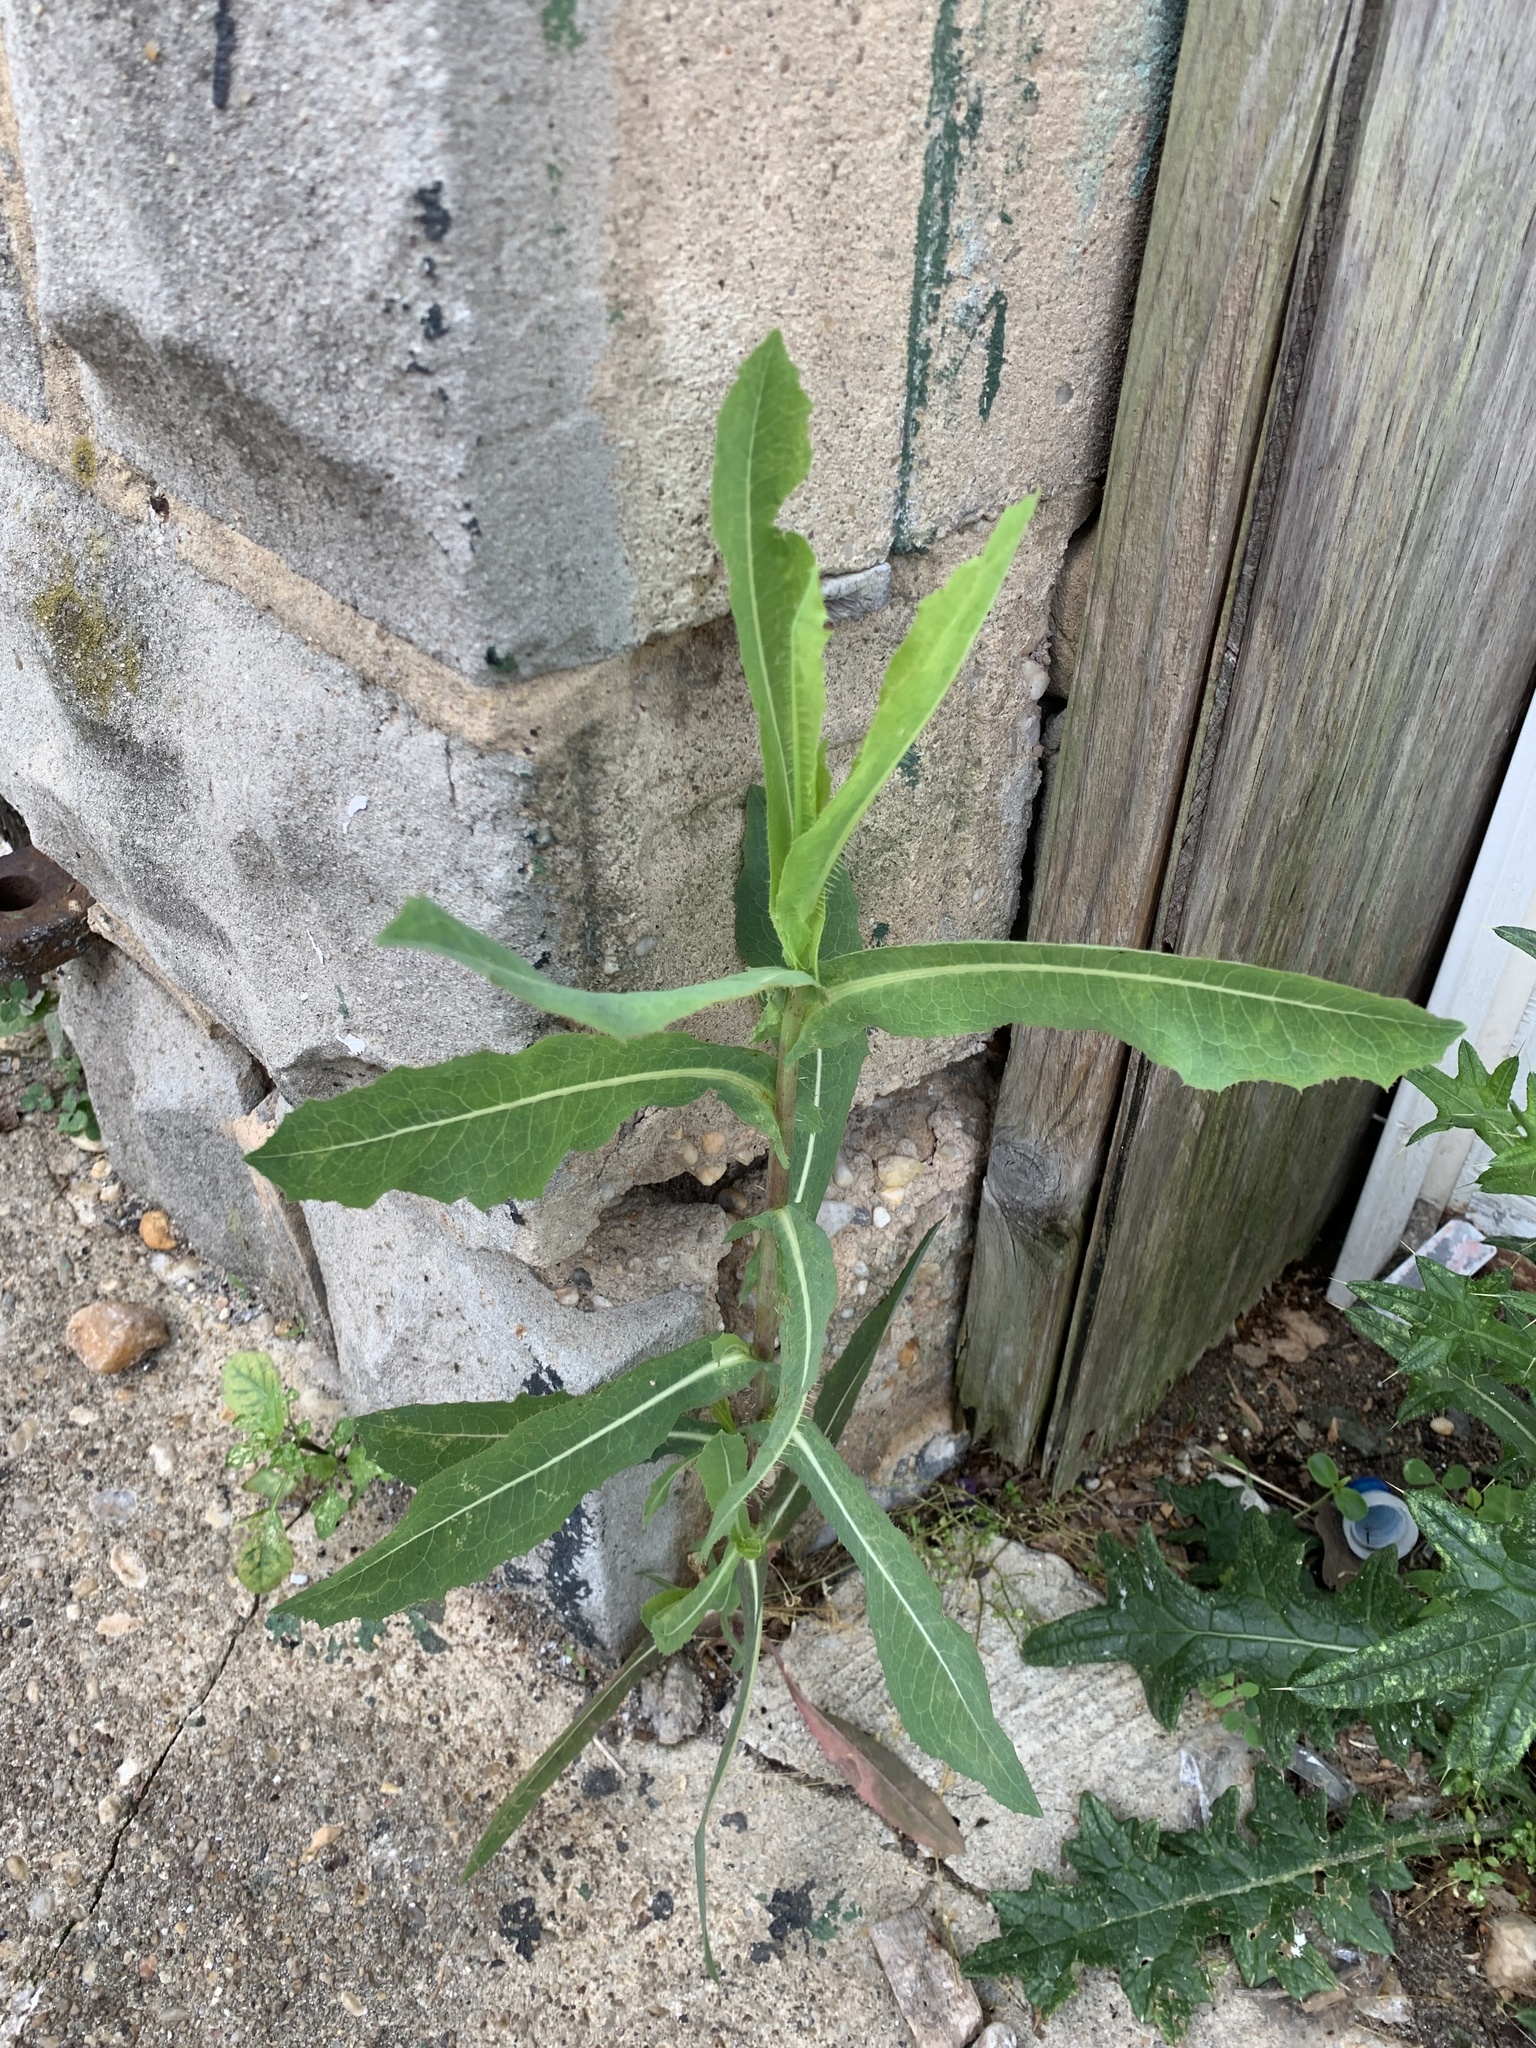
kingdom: Plantae
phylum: Tracheophyta
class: Magnoliopsida
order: Asterales
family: Asteraceae
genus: Lactuca
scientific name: Lactuca serriola
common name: Prickly lettuce
